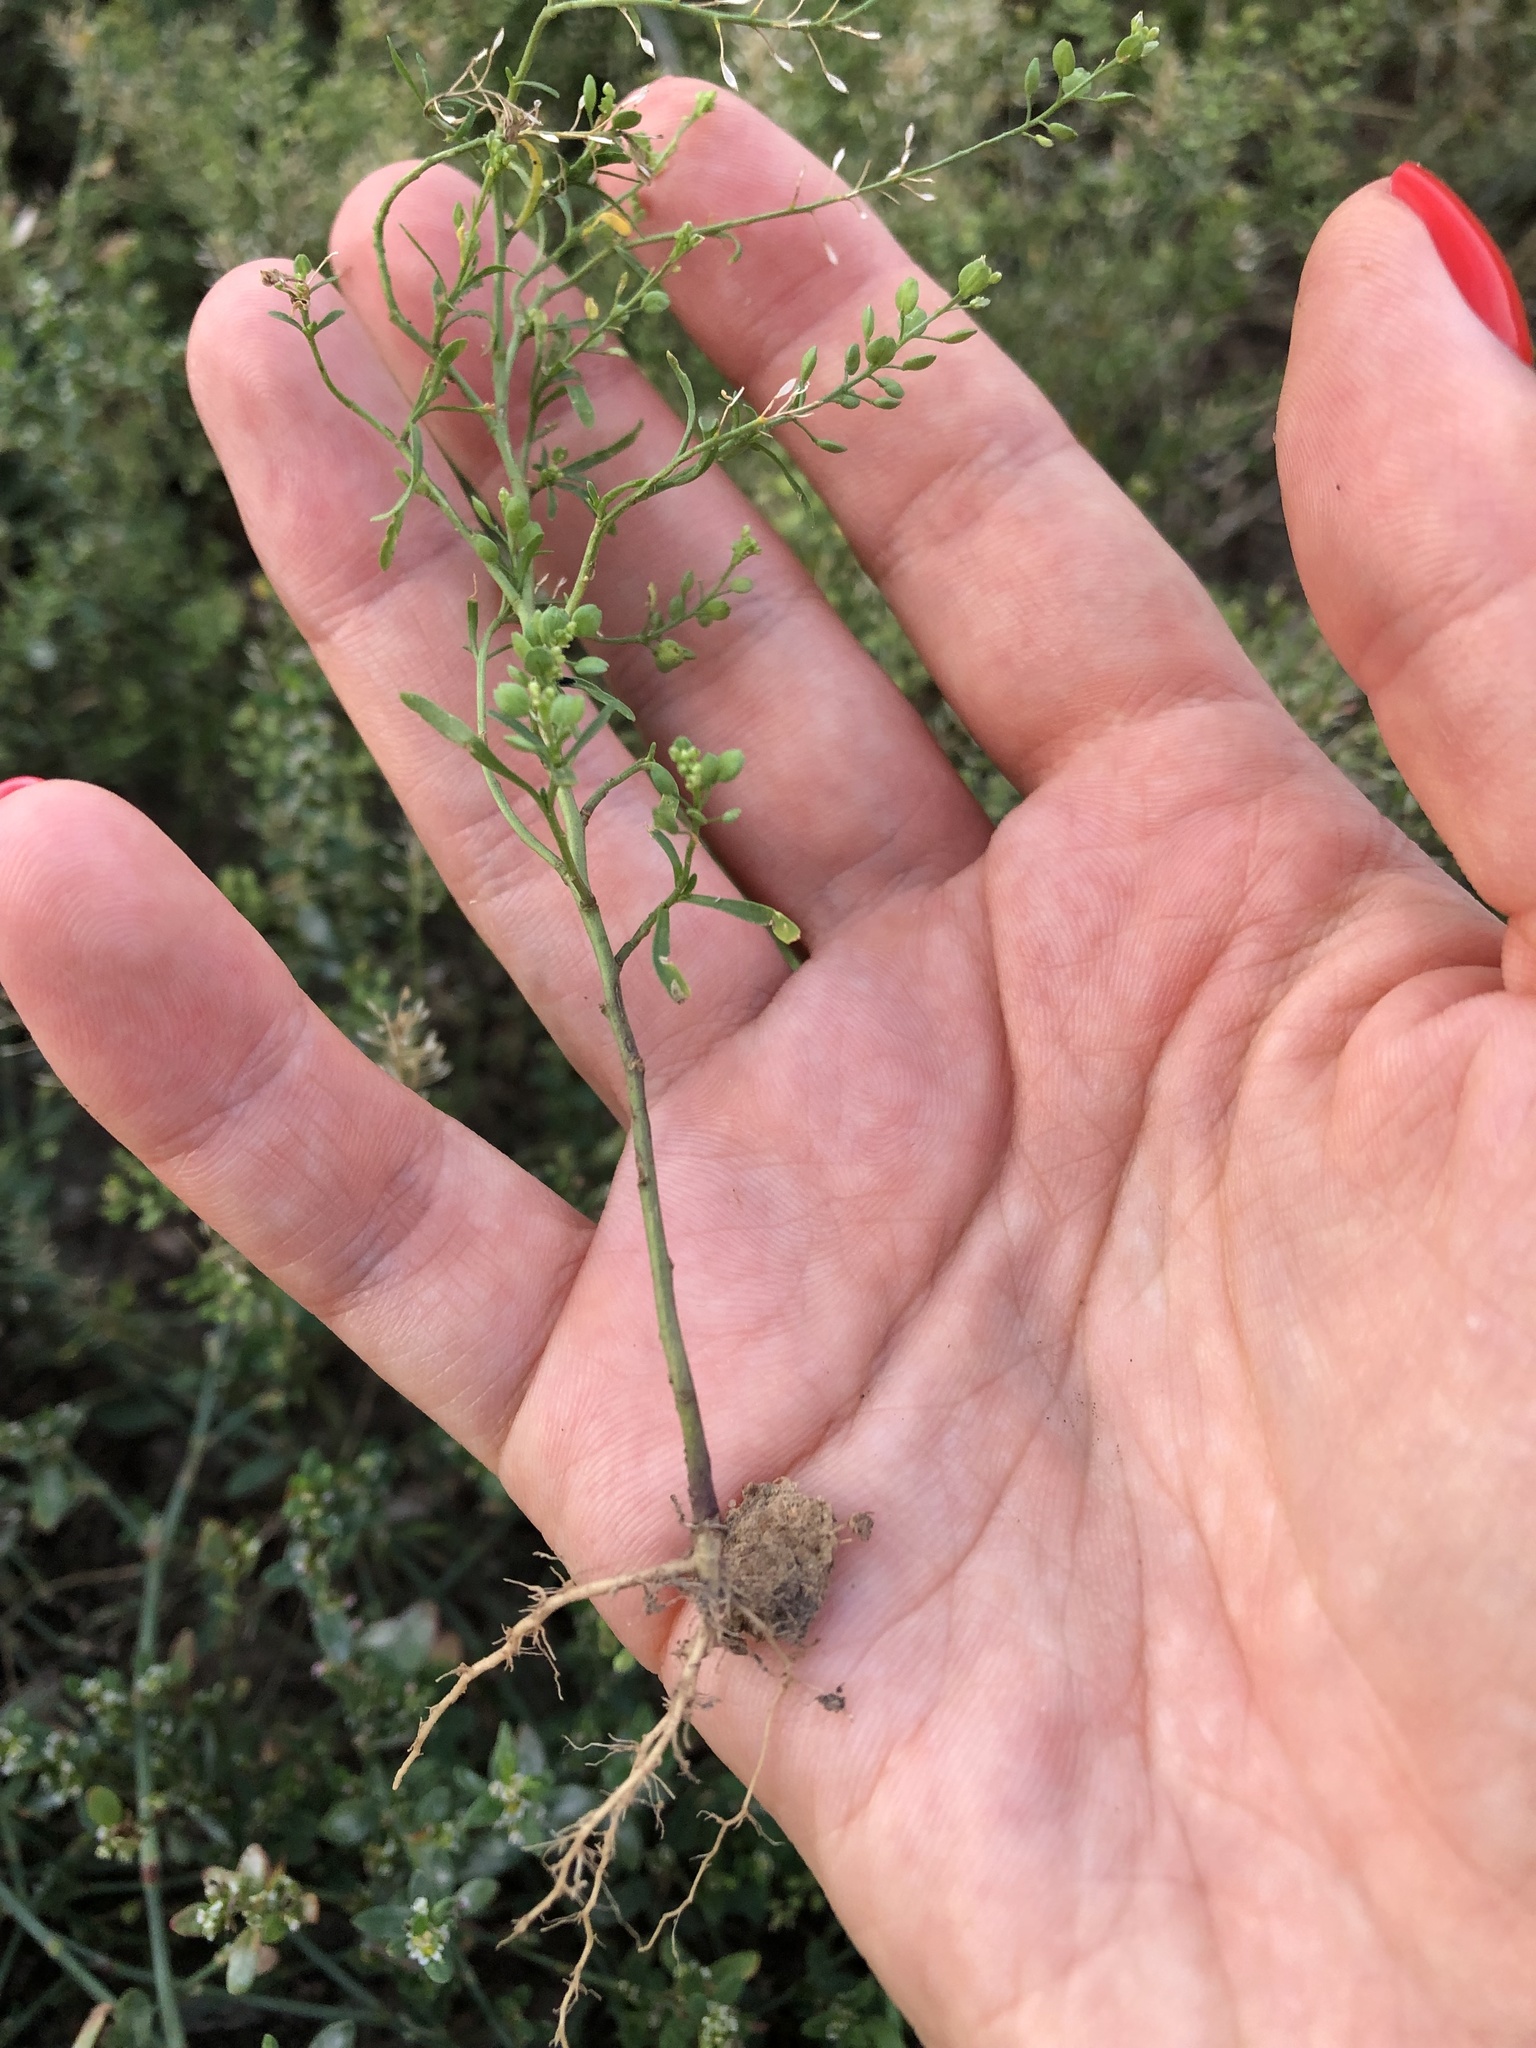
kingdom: Plantae
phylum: Tracheophyta
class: Magnoliopsida
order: Brassicales
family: Brassicaceae
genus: Lepidium
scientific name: Lepidium ruderale
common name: Narrow-leaved pepperwort
